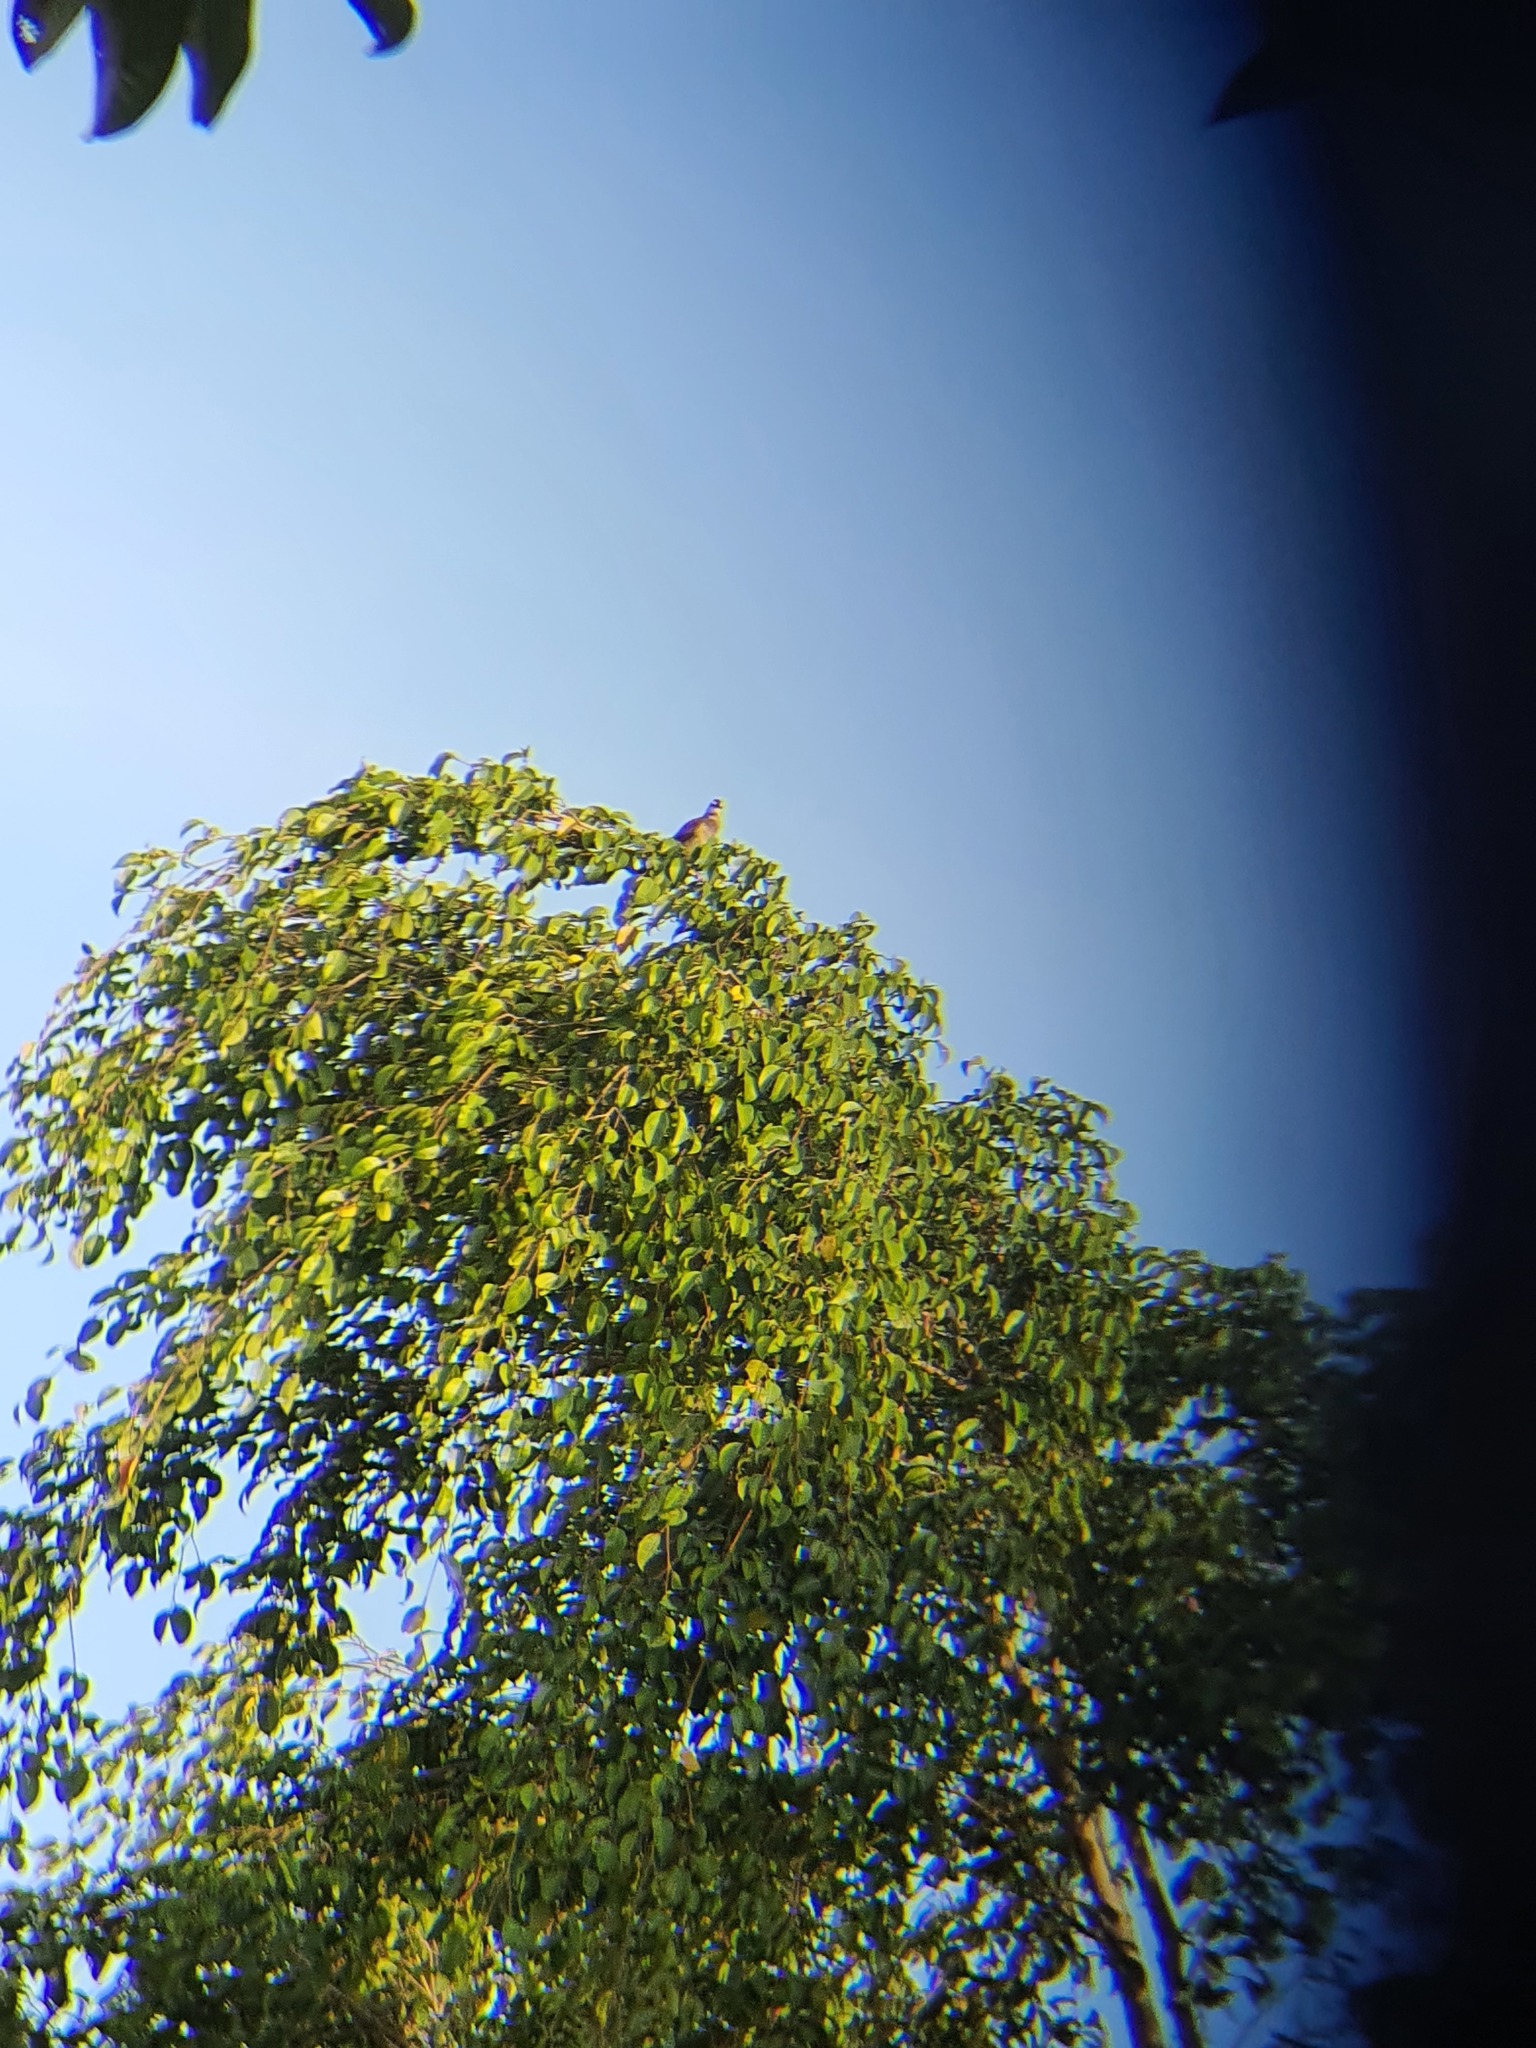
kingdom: Animalia
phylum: Chordata
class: Aves
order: Passeriformes
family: Pycnonotidae
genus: Pycnonotus
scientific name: Pycnonotus goiavier
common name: Yellow-vented bulbul
